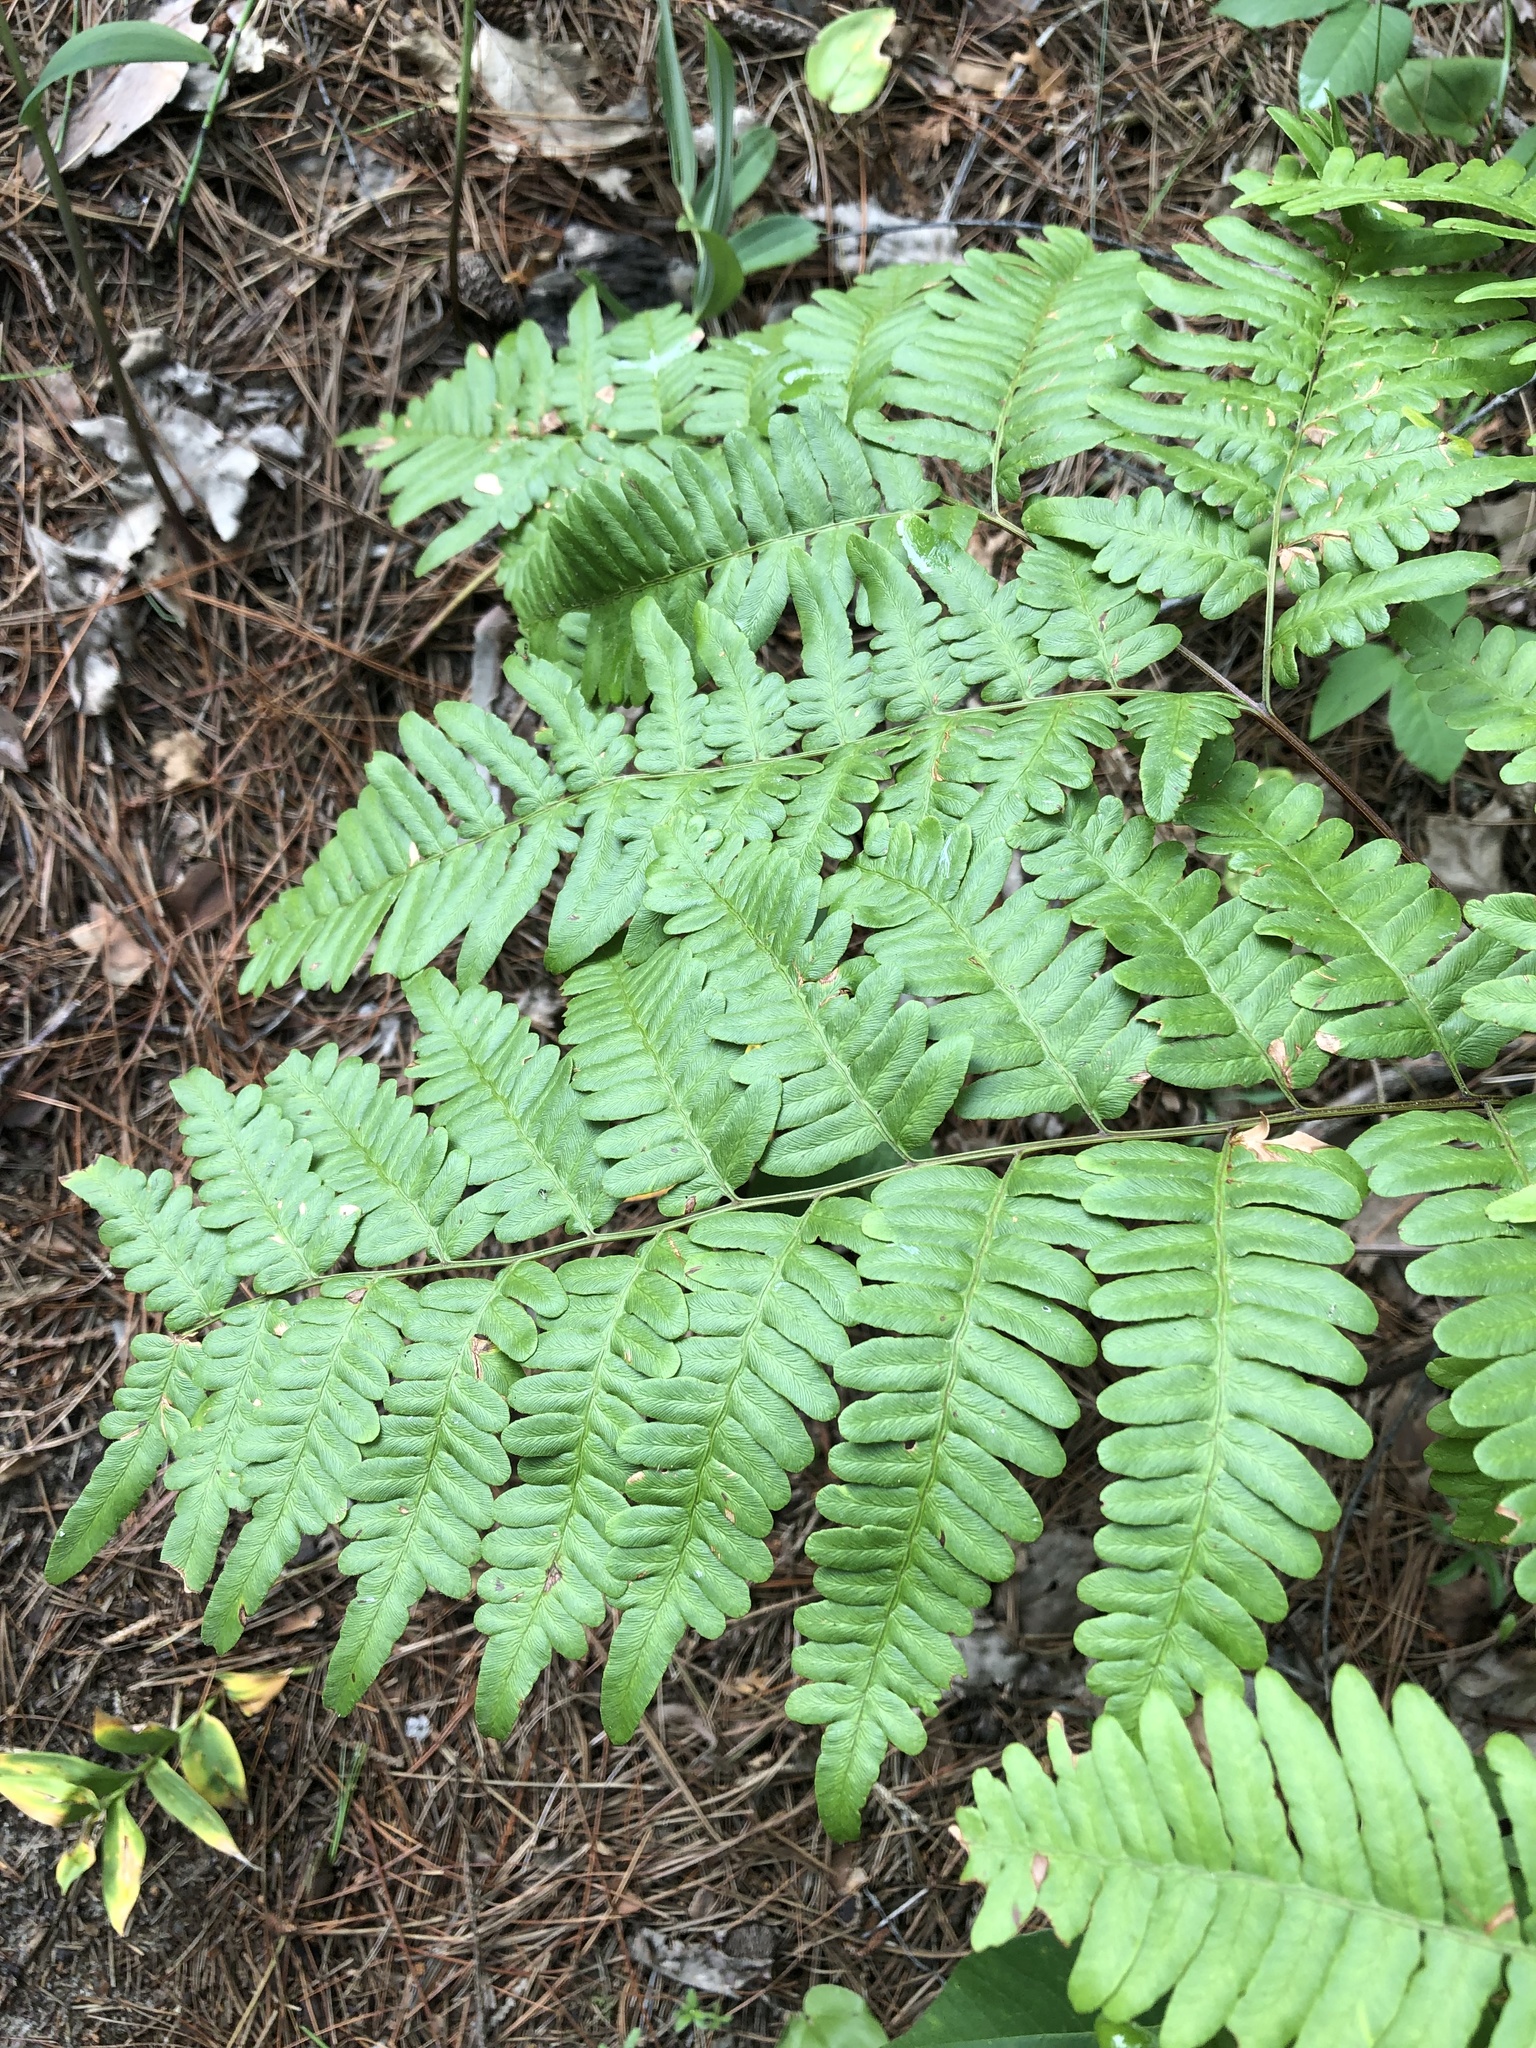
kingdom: Plantae
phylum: Tracheophyta
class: Polypodiopsida
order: Polypodiales
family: Dennstaedtiaceae
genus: Pteridium
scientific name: Pteridium aquilinum
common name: Bracken
